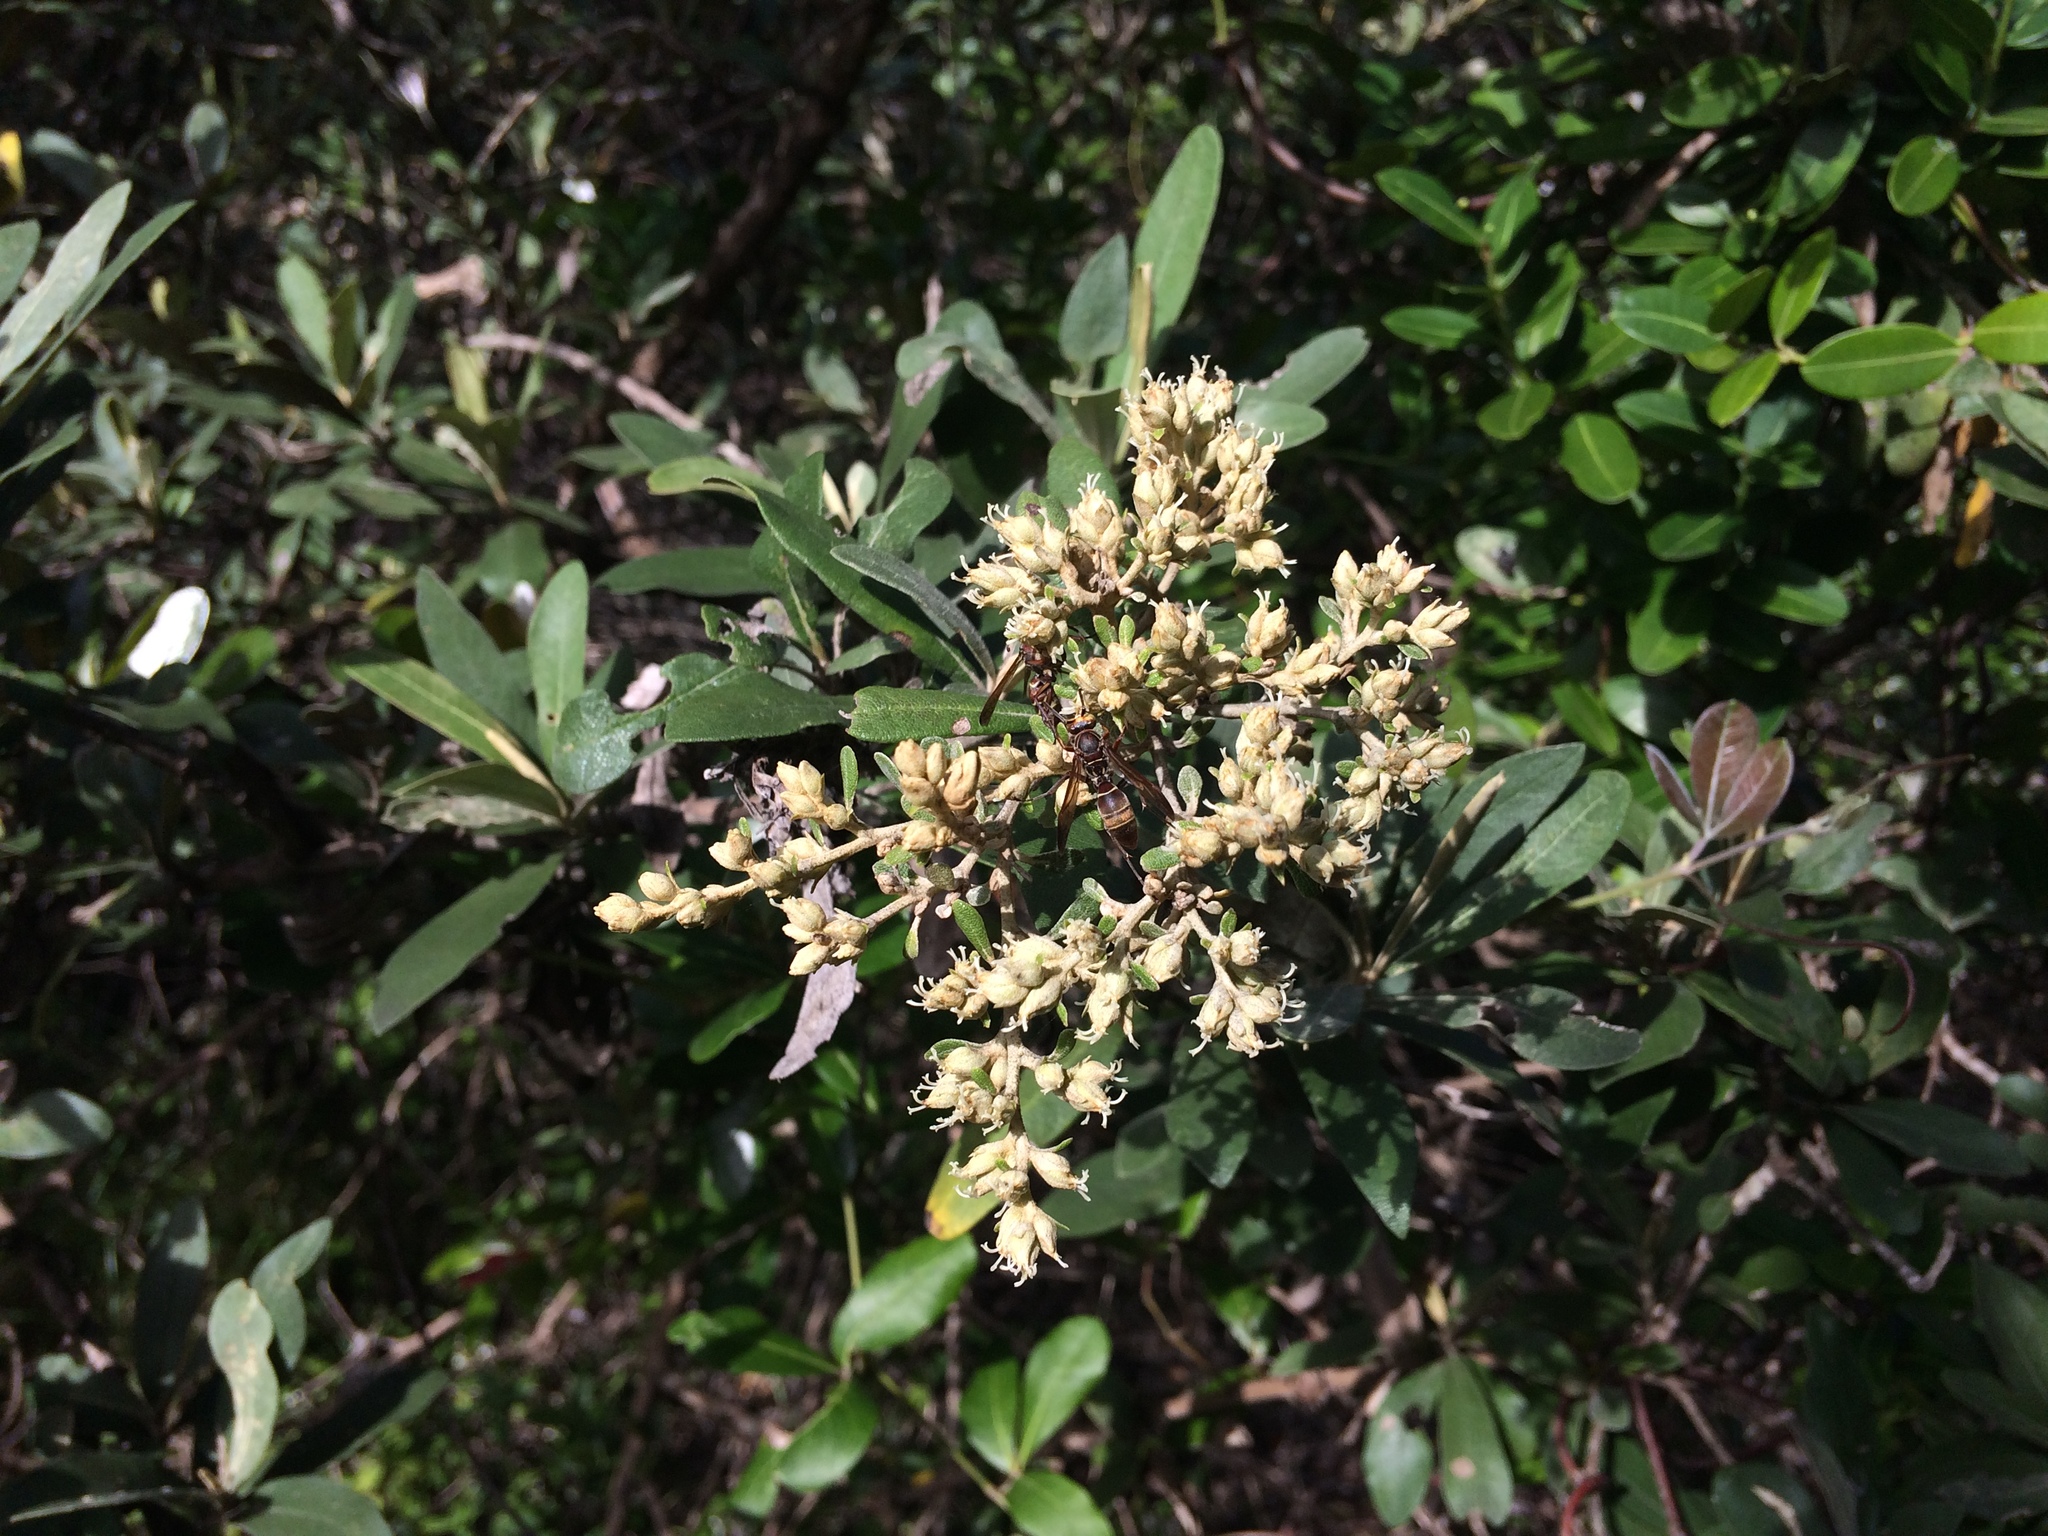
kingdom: Plantae
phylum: Tracheophyta
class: Magnoliopsida
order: Asterales
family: Asteraceae
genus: Tarchonanthus
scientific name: Tarchonanthus littoralis
